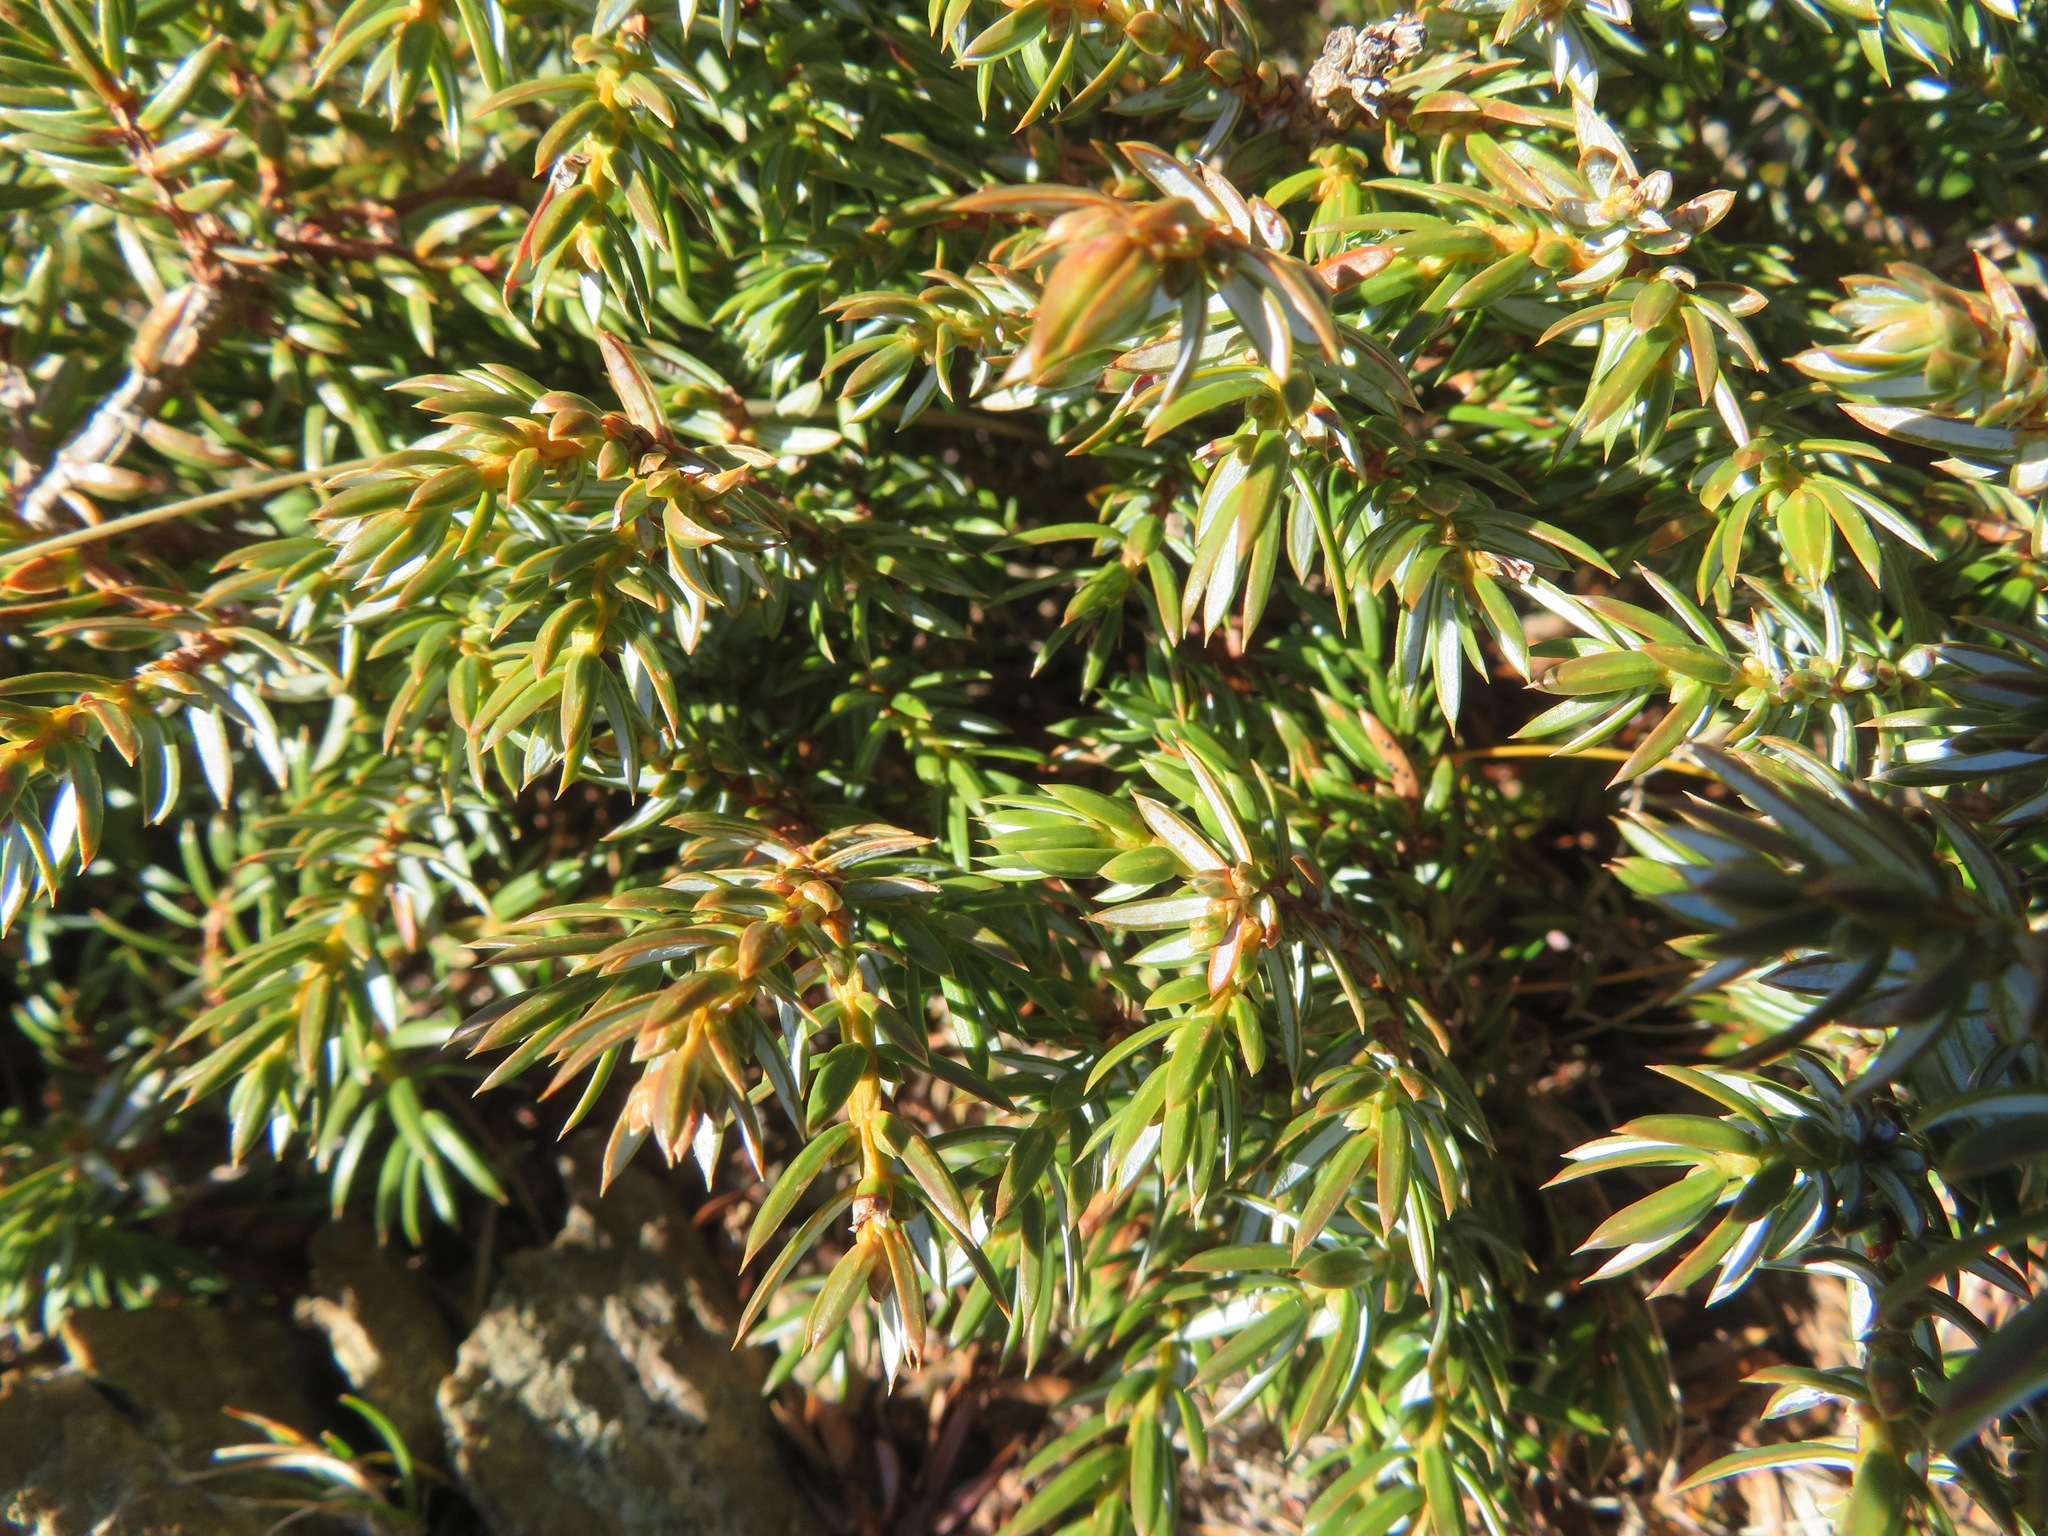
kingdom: Plantae
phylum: Tracheophyta
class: Pinopsida
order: Pinales
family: Cupressaceae
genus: Juniperus
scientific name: Juniperus communis
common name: Common juniper
